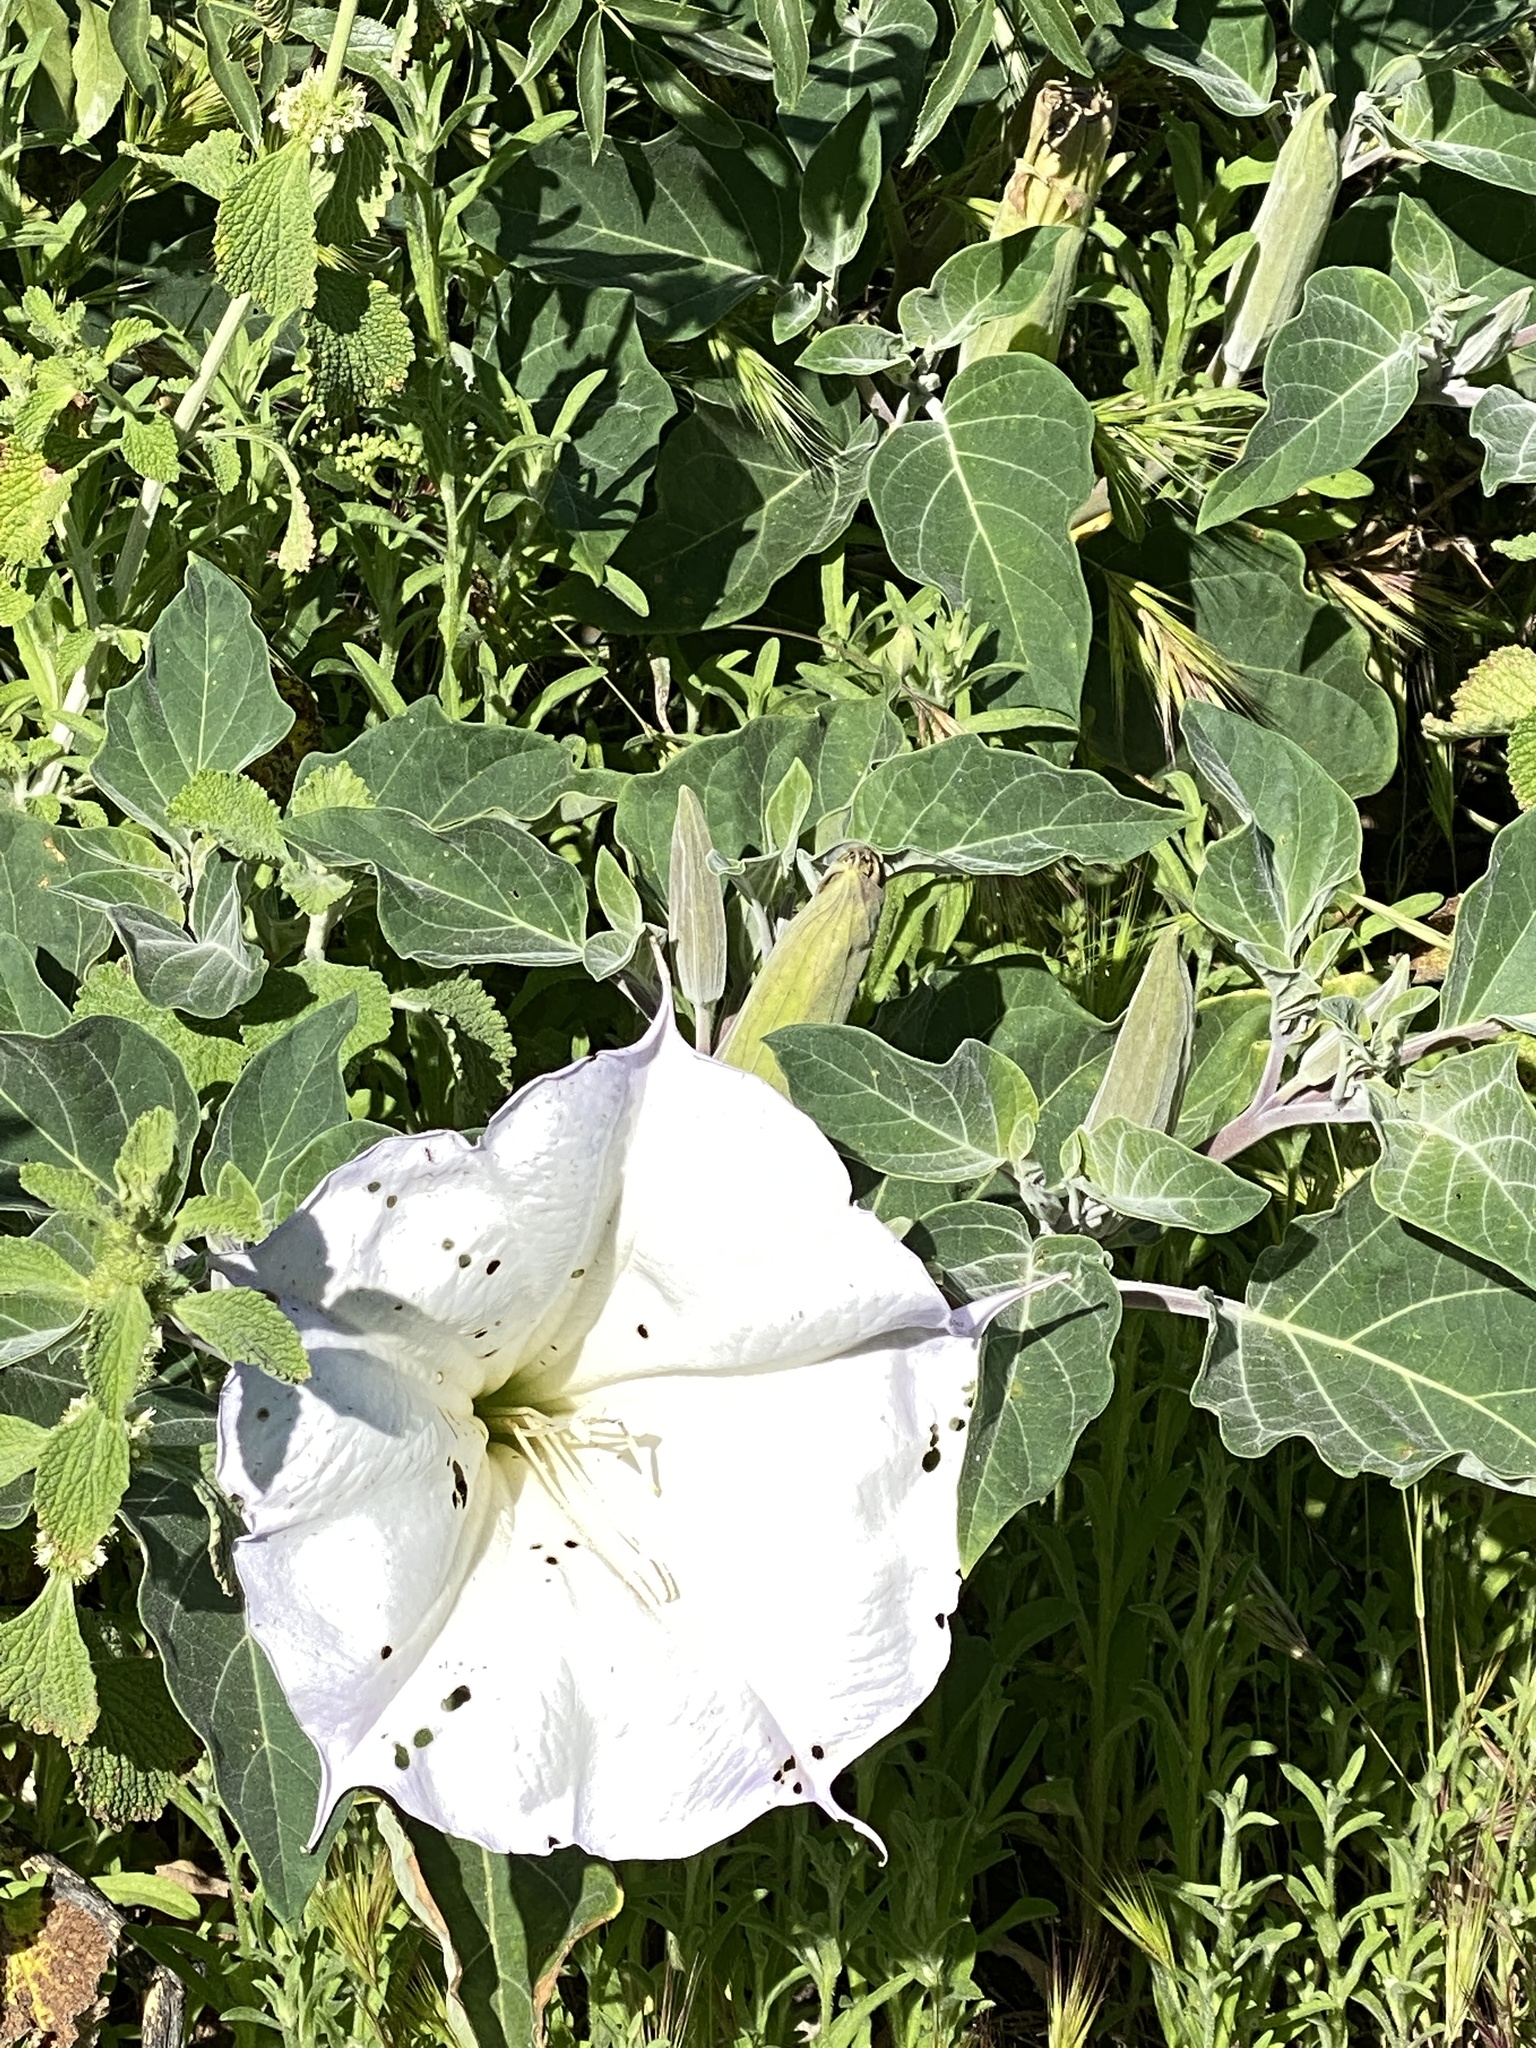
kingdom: Plantae
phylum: Tracheophyta
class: Magnoliopsida
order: Solanales
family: Solanaceae
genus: Datura
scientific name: Datura wrightii
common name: Sacred thorn-apple
